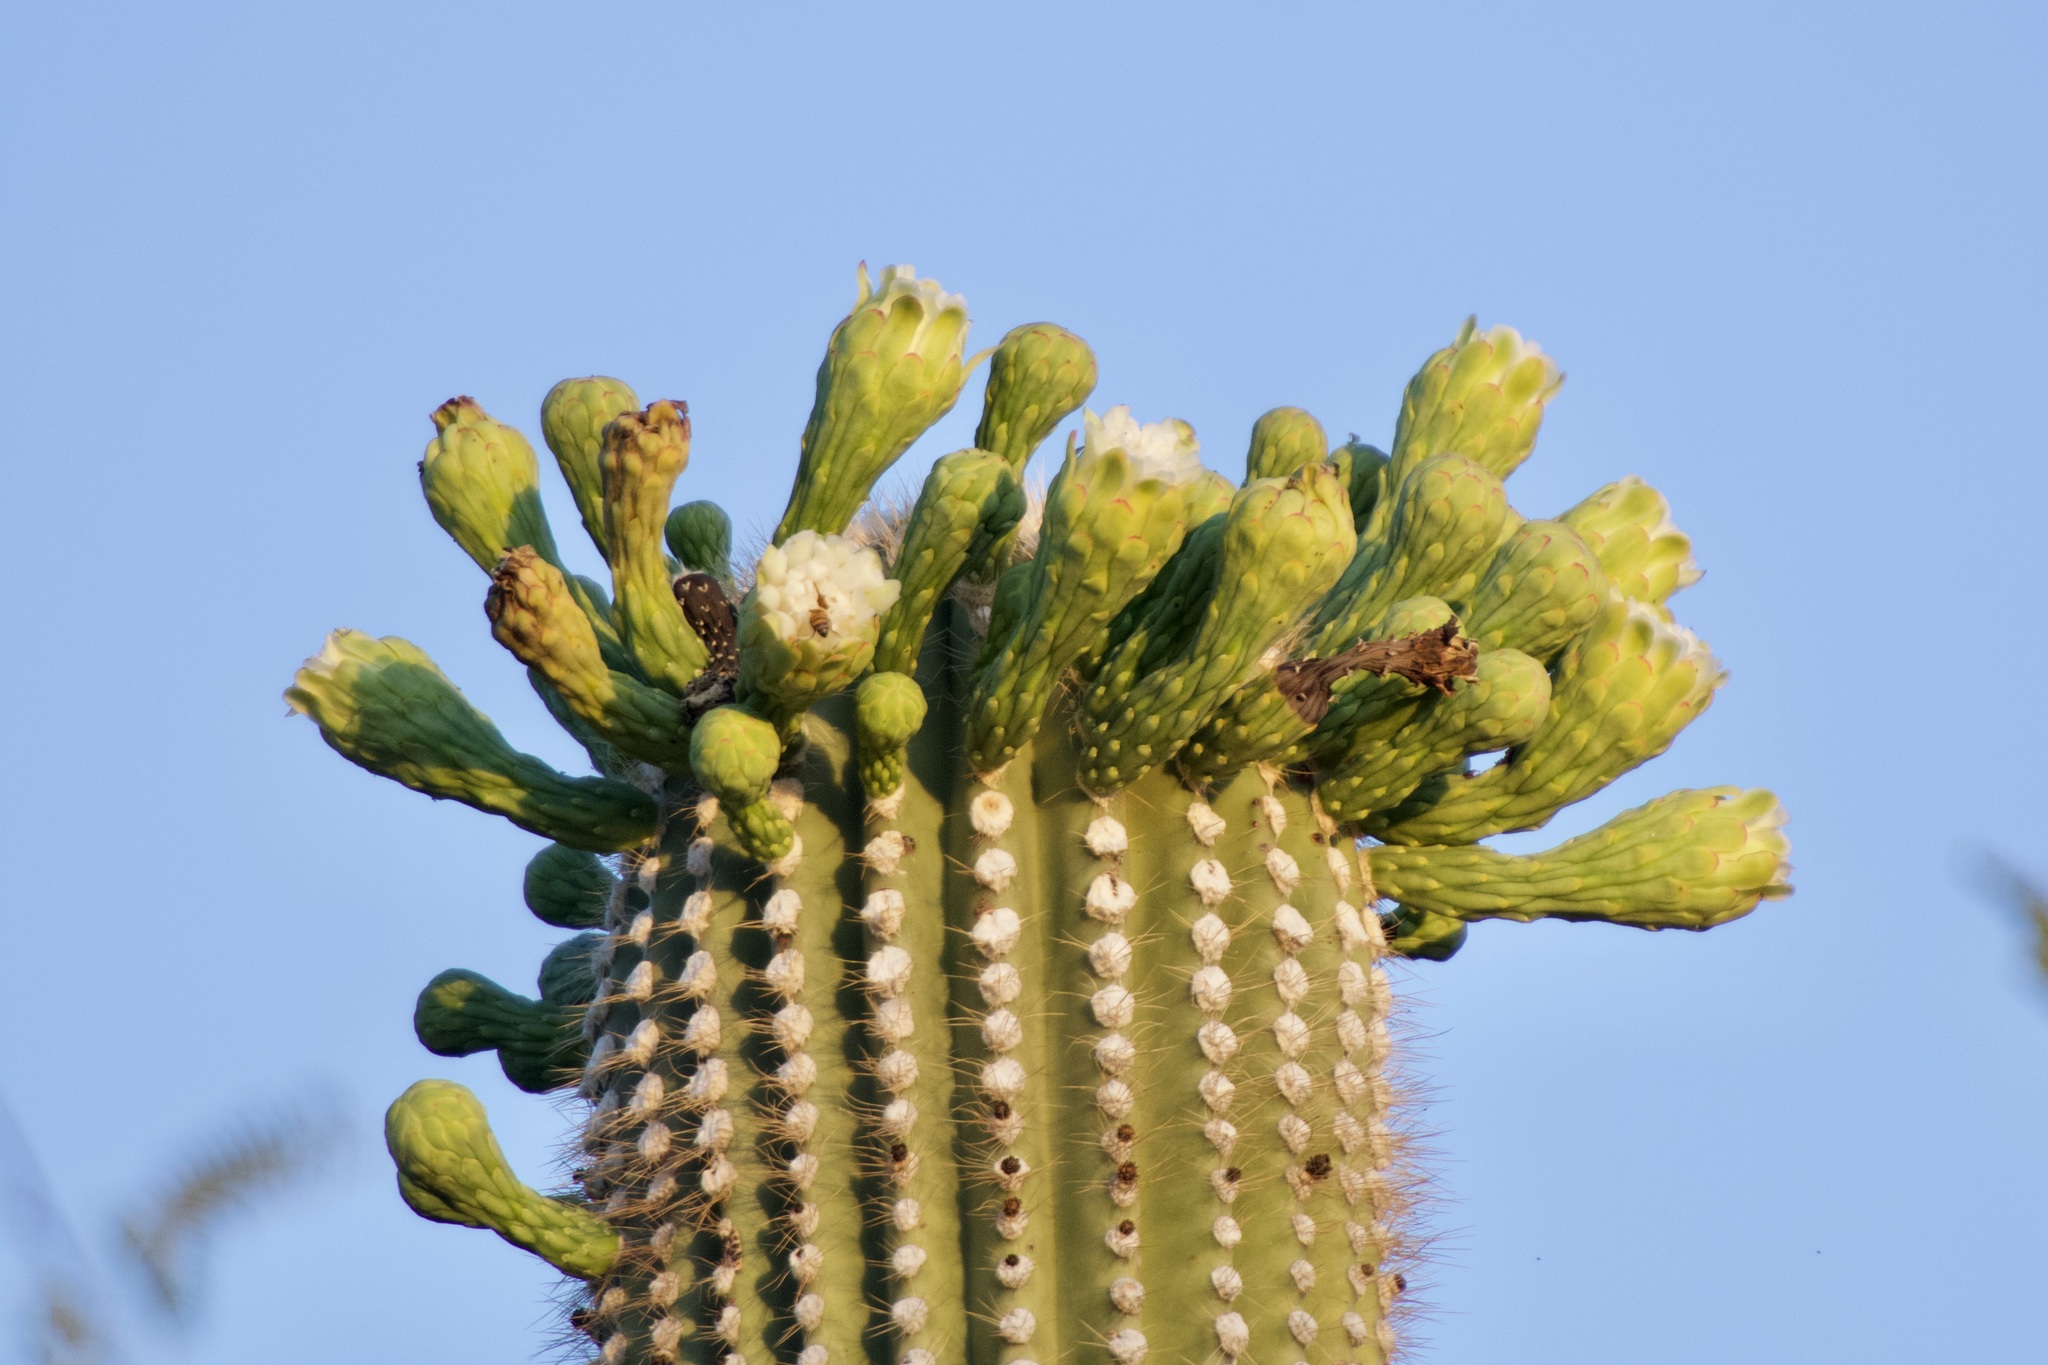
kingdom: Plantae
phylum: Tracheophyta
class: Magnoliopsida
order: Caryophyllales
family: Cactaceae
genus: Carnegiea
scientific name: Carnegiea gigantea
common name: Saguaro
